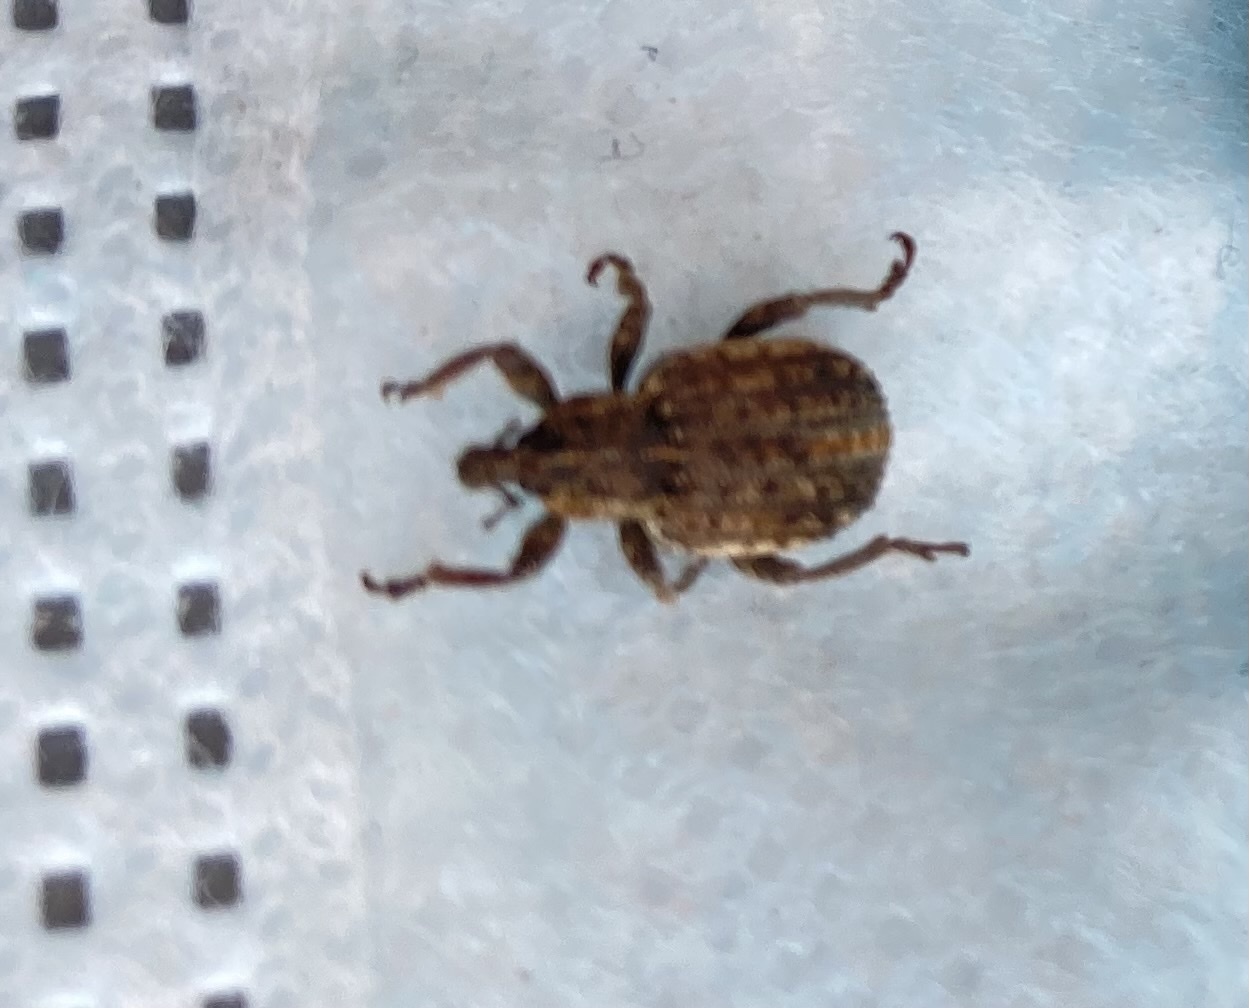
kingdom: Animalia
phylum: Arthropoda
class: Insecta
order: Coleoptera
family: Curculionidae
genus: Brachypera
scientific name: Brachypera zoilus
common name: Clover leaf weevil
